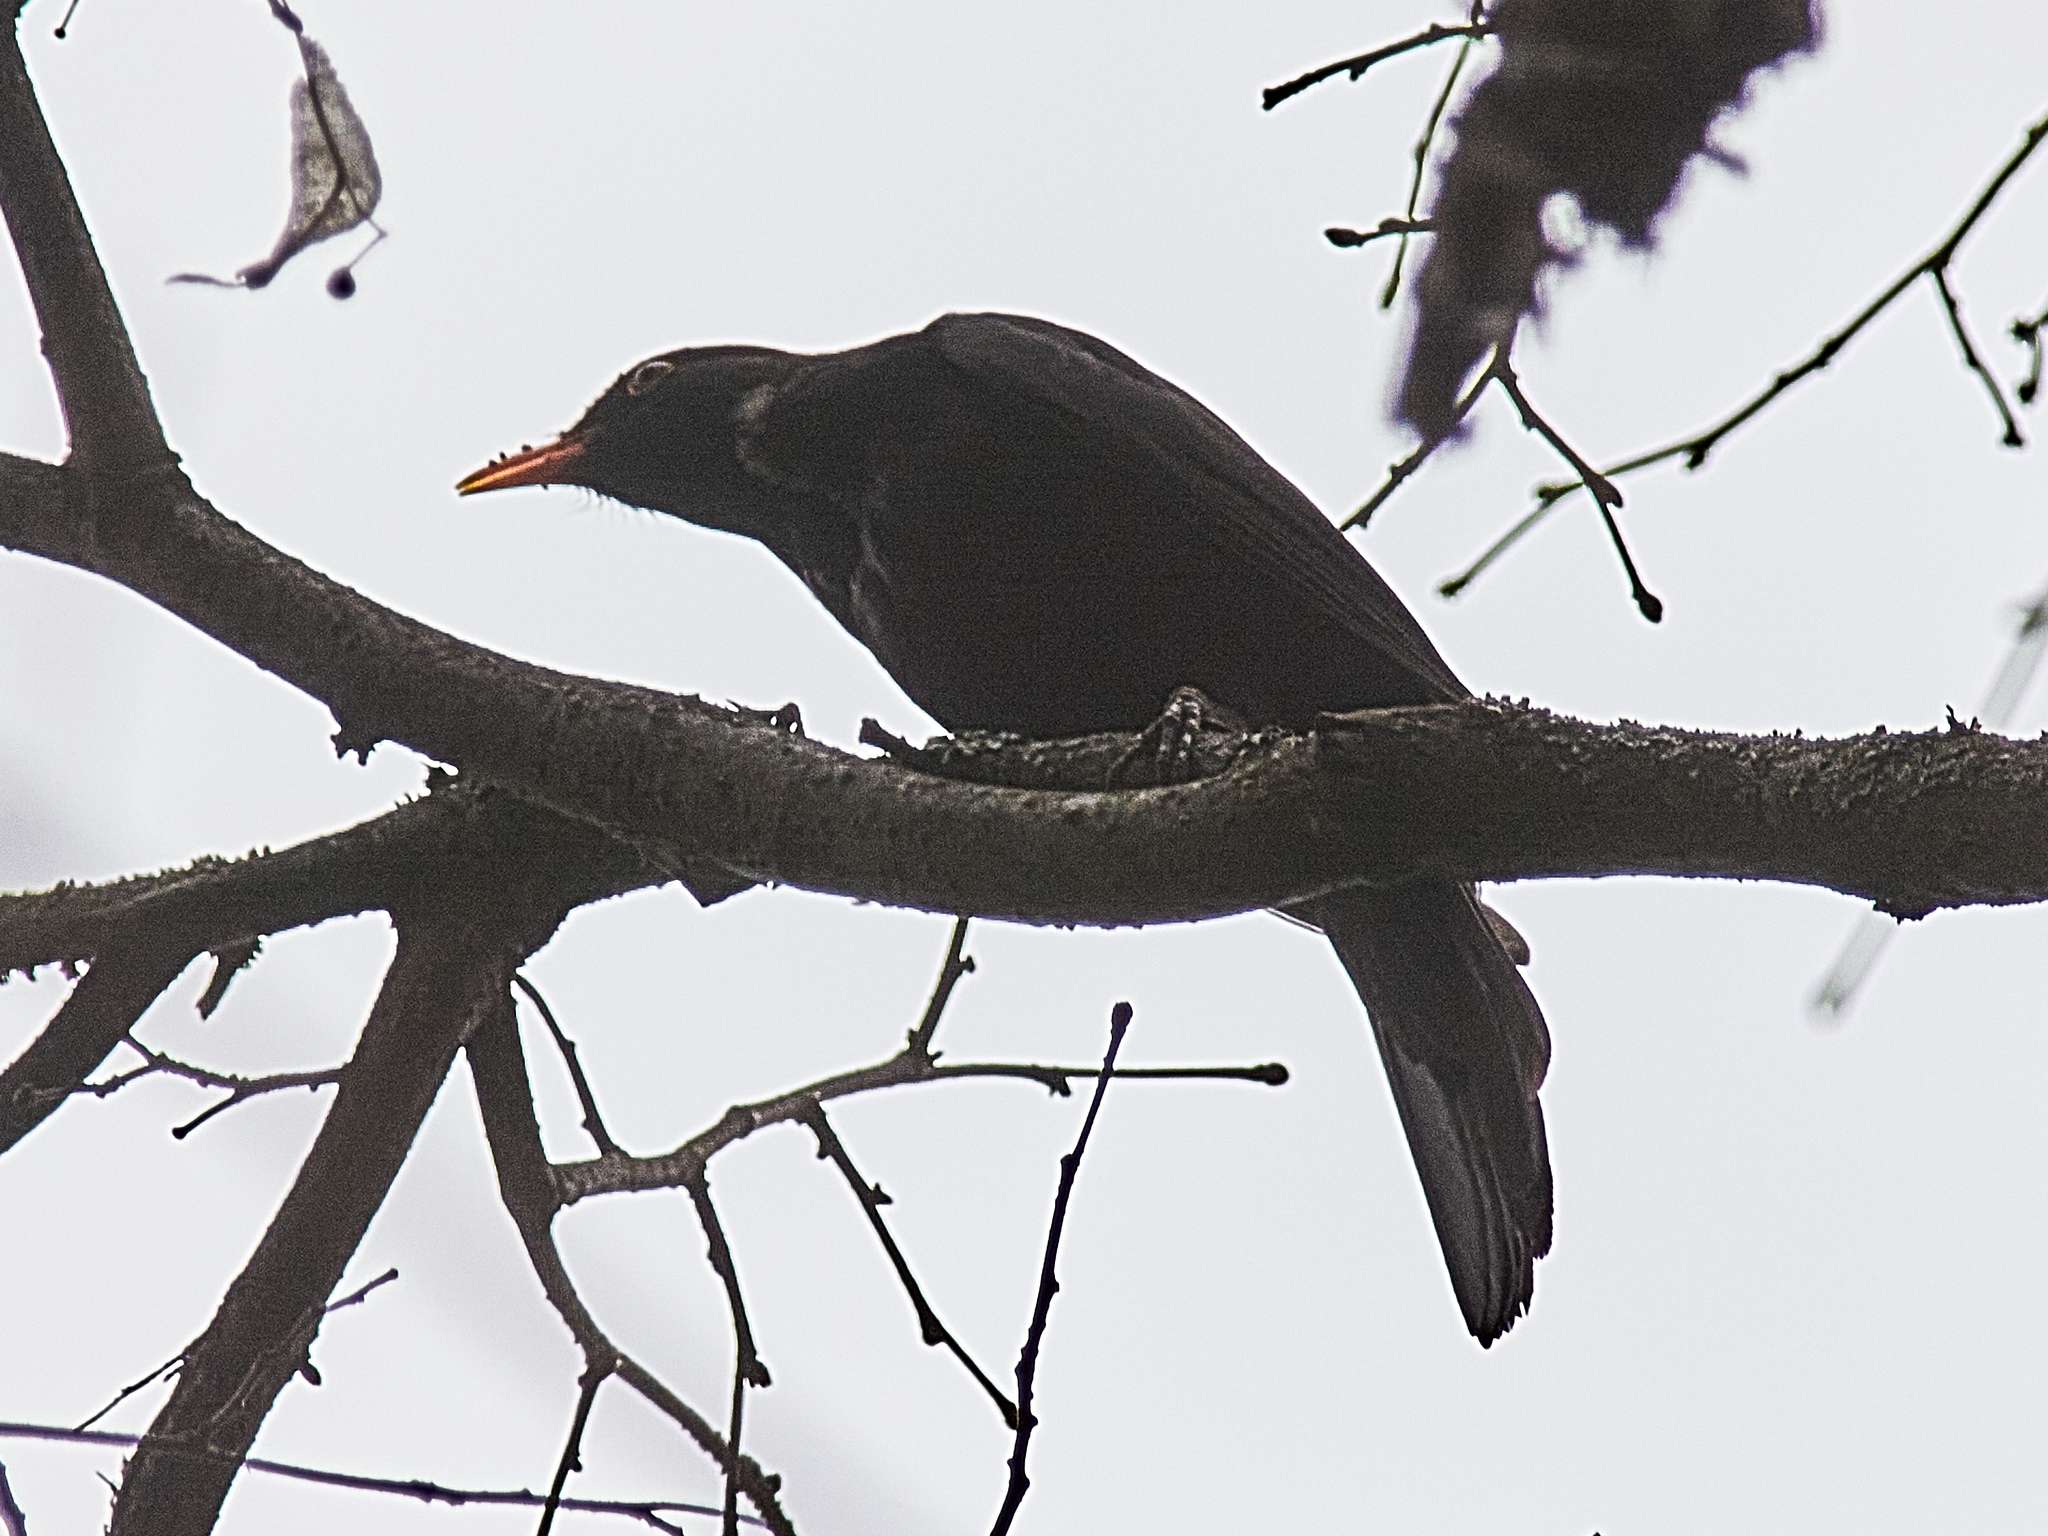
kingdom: Animalia
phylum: Chordata
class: Aves
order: Passeriformes
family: Turdidae
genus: Turdus
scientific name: Turdus merula
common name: Common blackbird
